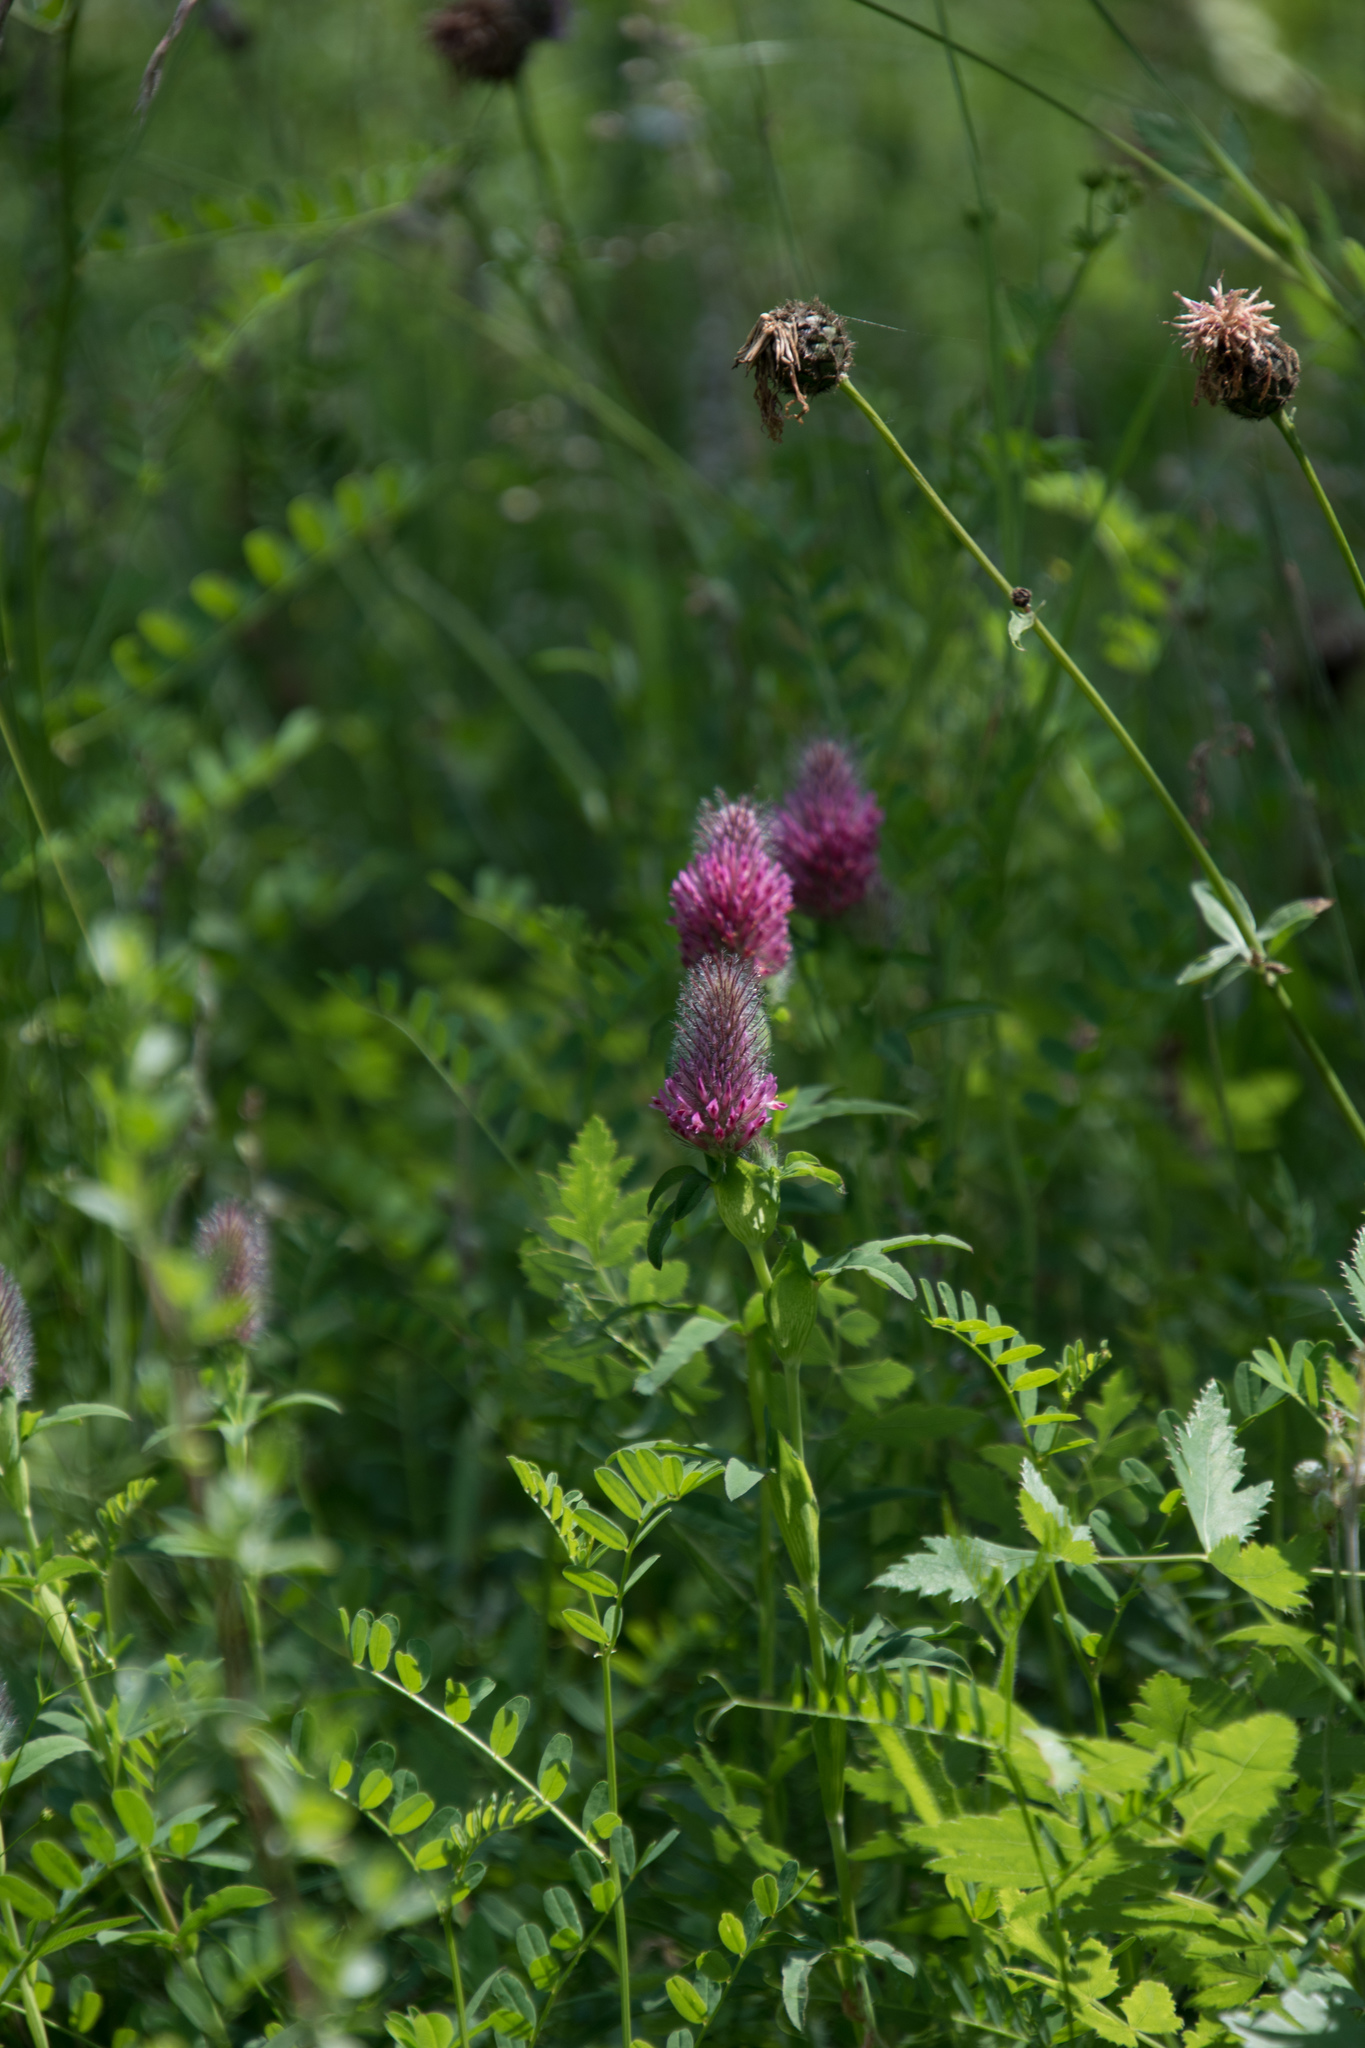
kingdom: Plantae
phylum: Tracheophyta
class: Magnoliopsida
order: Fabales
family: Fabaceae
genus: Trifolium
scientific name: Trifolium rubens
